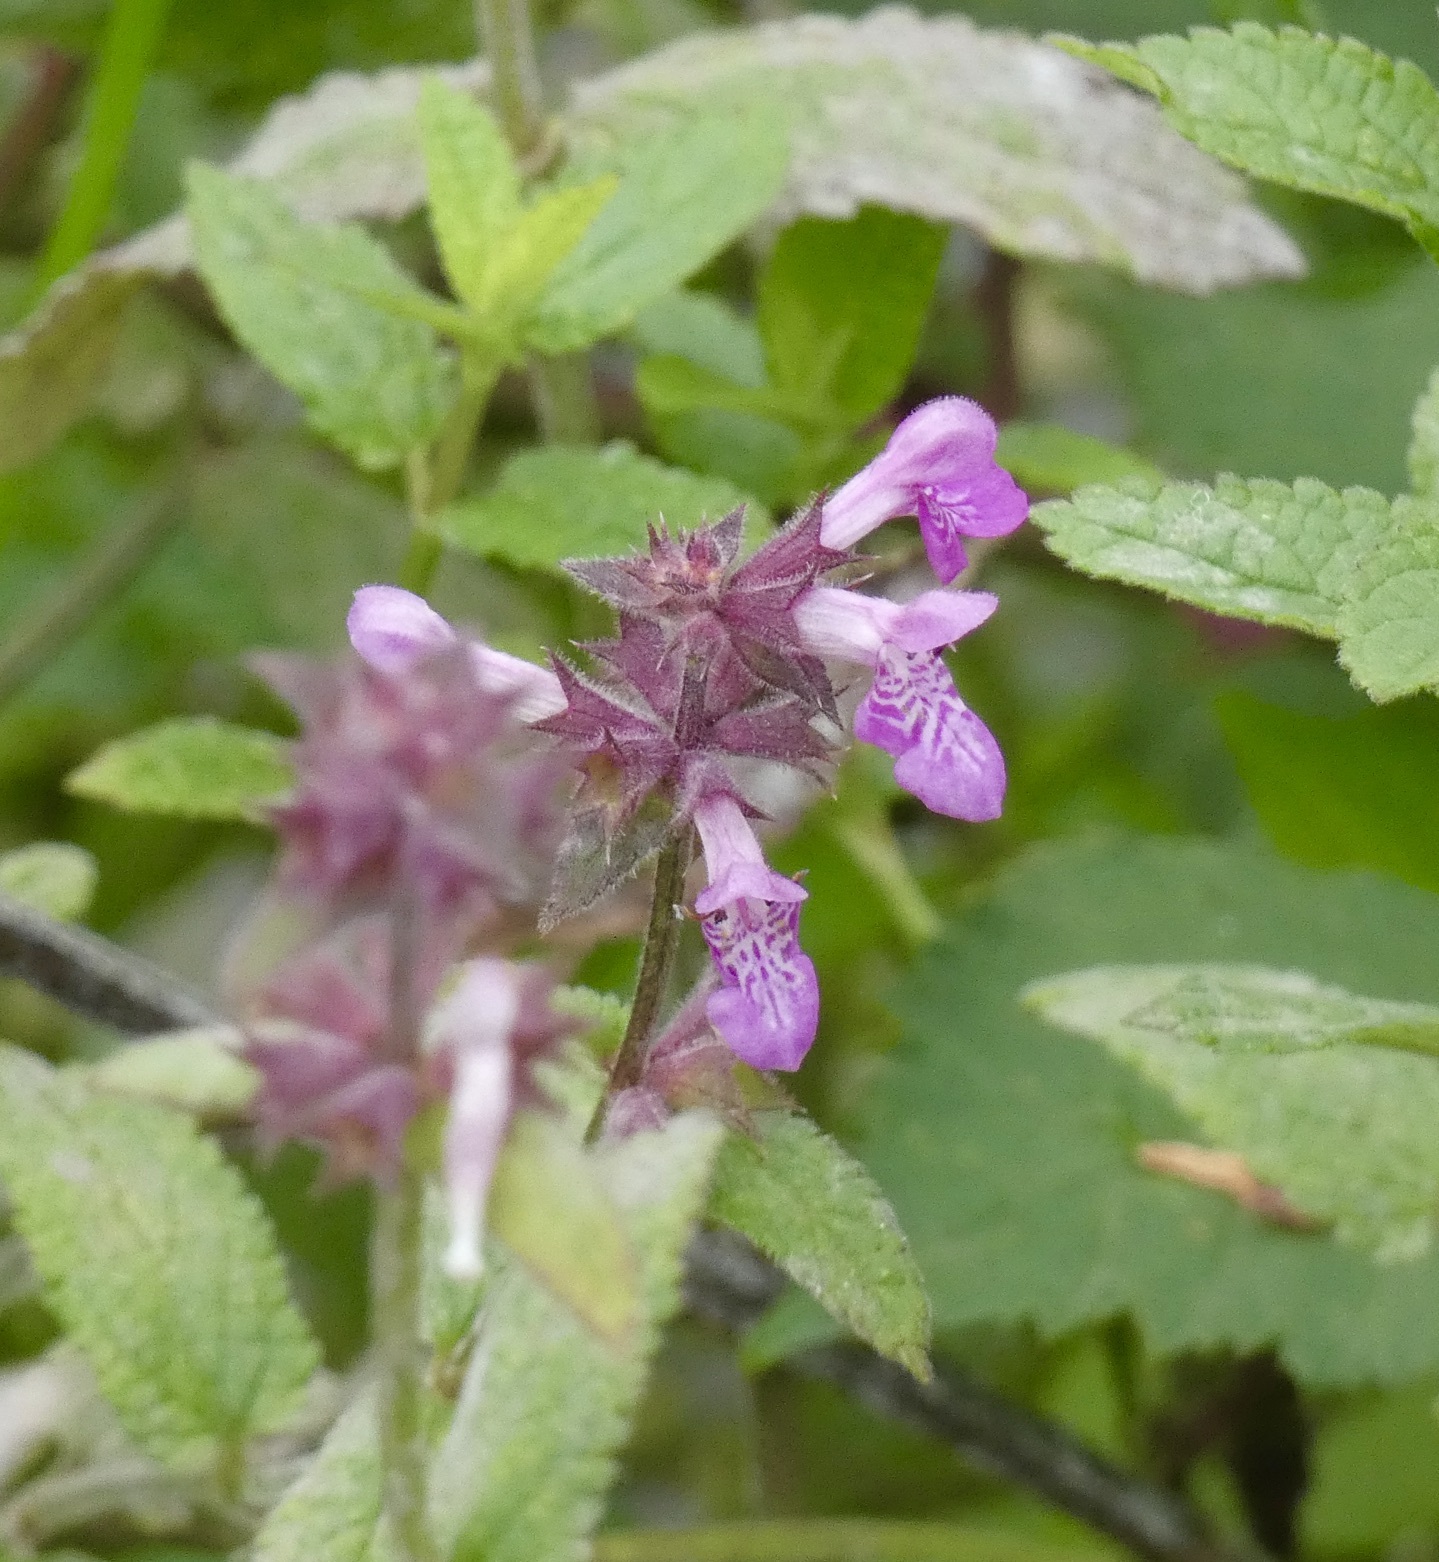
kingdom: Plantae
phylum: Tracheophyta
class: Magnoliopsida
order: Lamiales
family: Lamiaceae
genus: Stachys
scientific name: Stachys palustris
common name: Marsh woundwort
